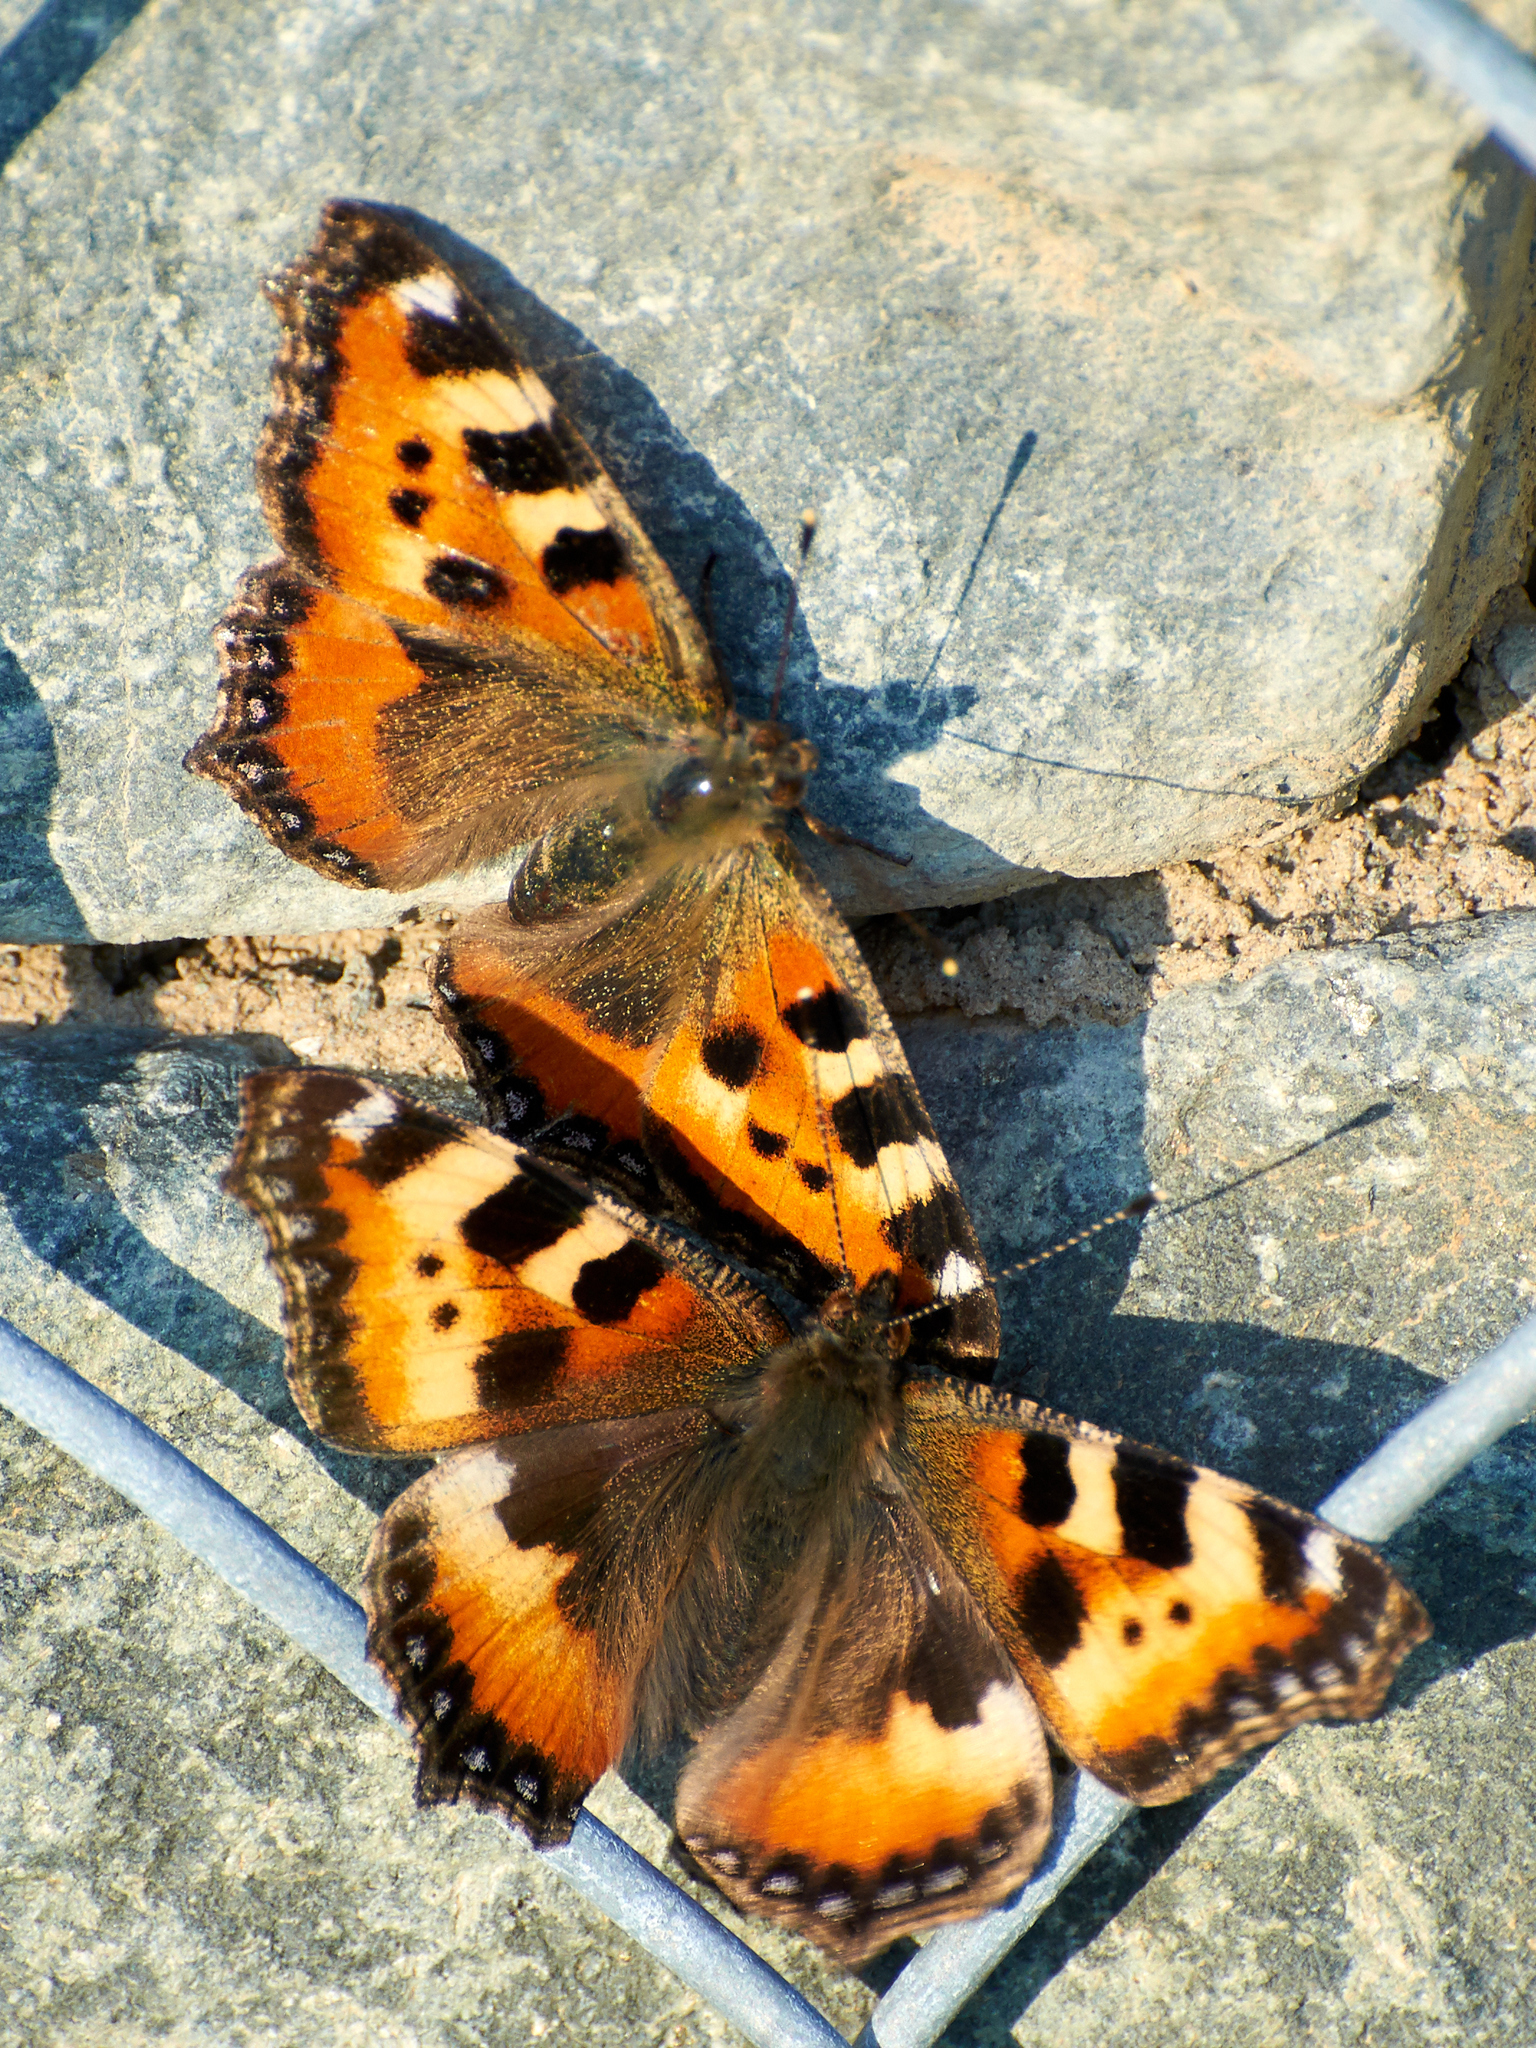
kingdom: Animalia
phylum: Arthropoda
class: Insecta
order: Lepidoptera
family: Nymphalidae
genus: Aglais
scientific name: Aglais urticae
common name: Small tortoiseshell
